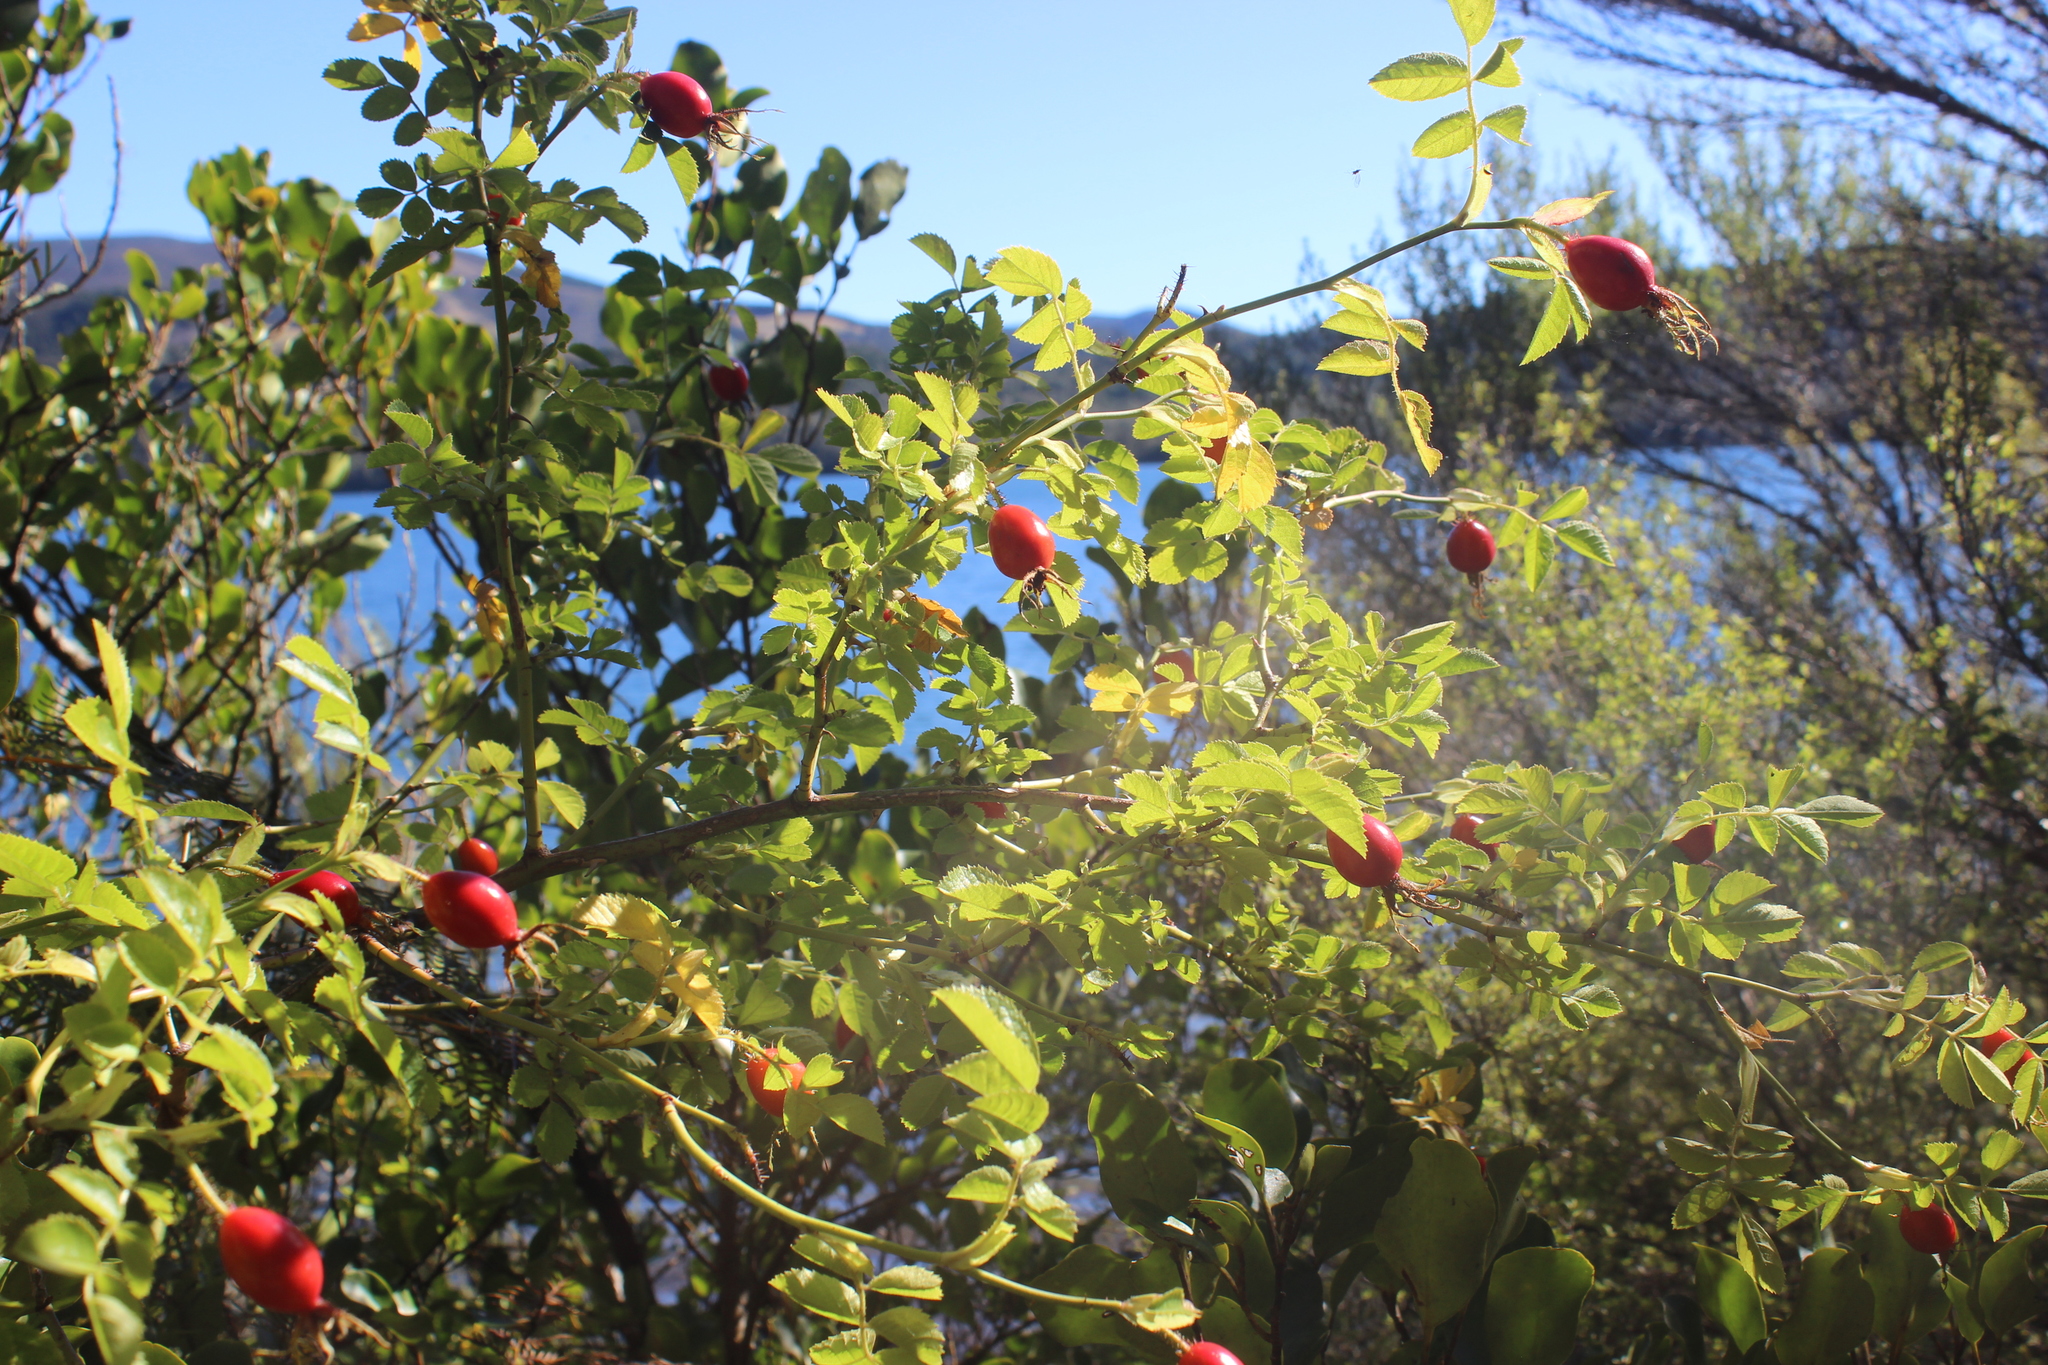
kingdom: Plantae
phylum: Tracheophyta
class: Magnoliopsida
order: Rosales
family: Rosaceae
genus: Rosa
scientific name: Rosa rubiginosa
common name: Sweet-briar
